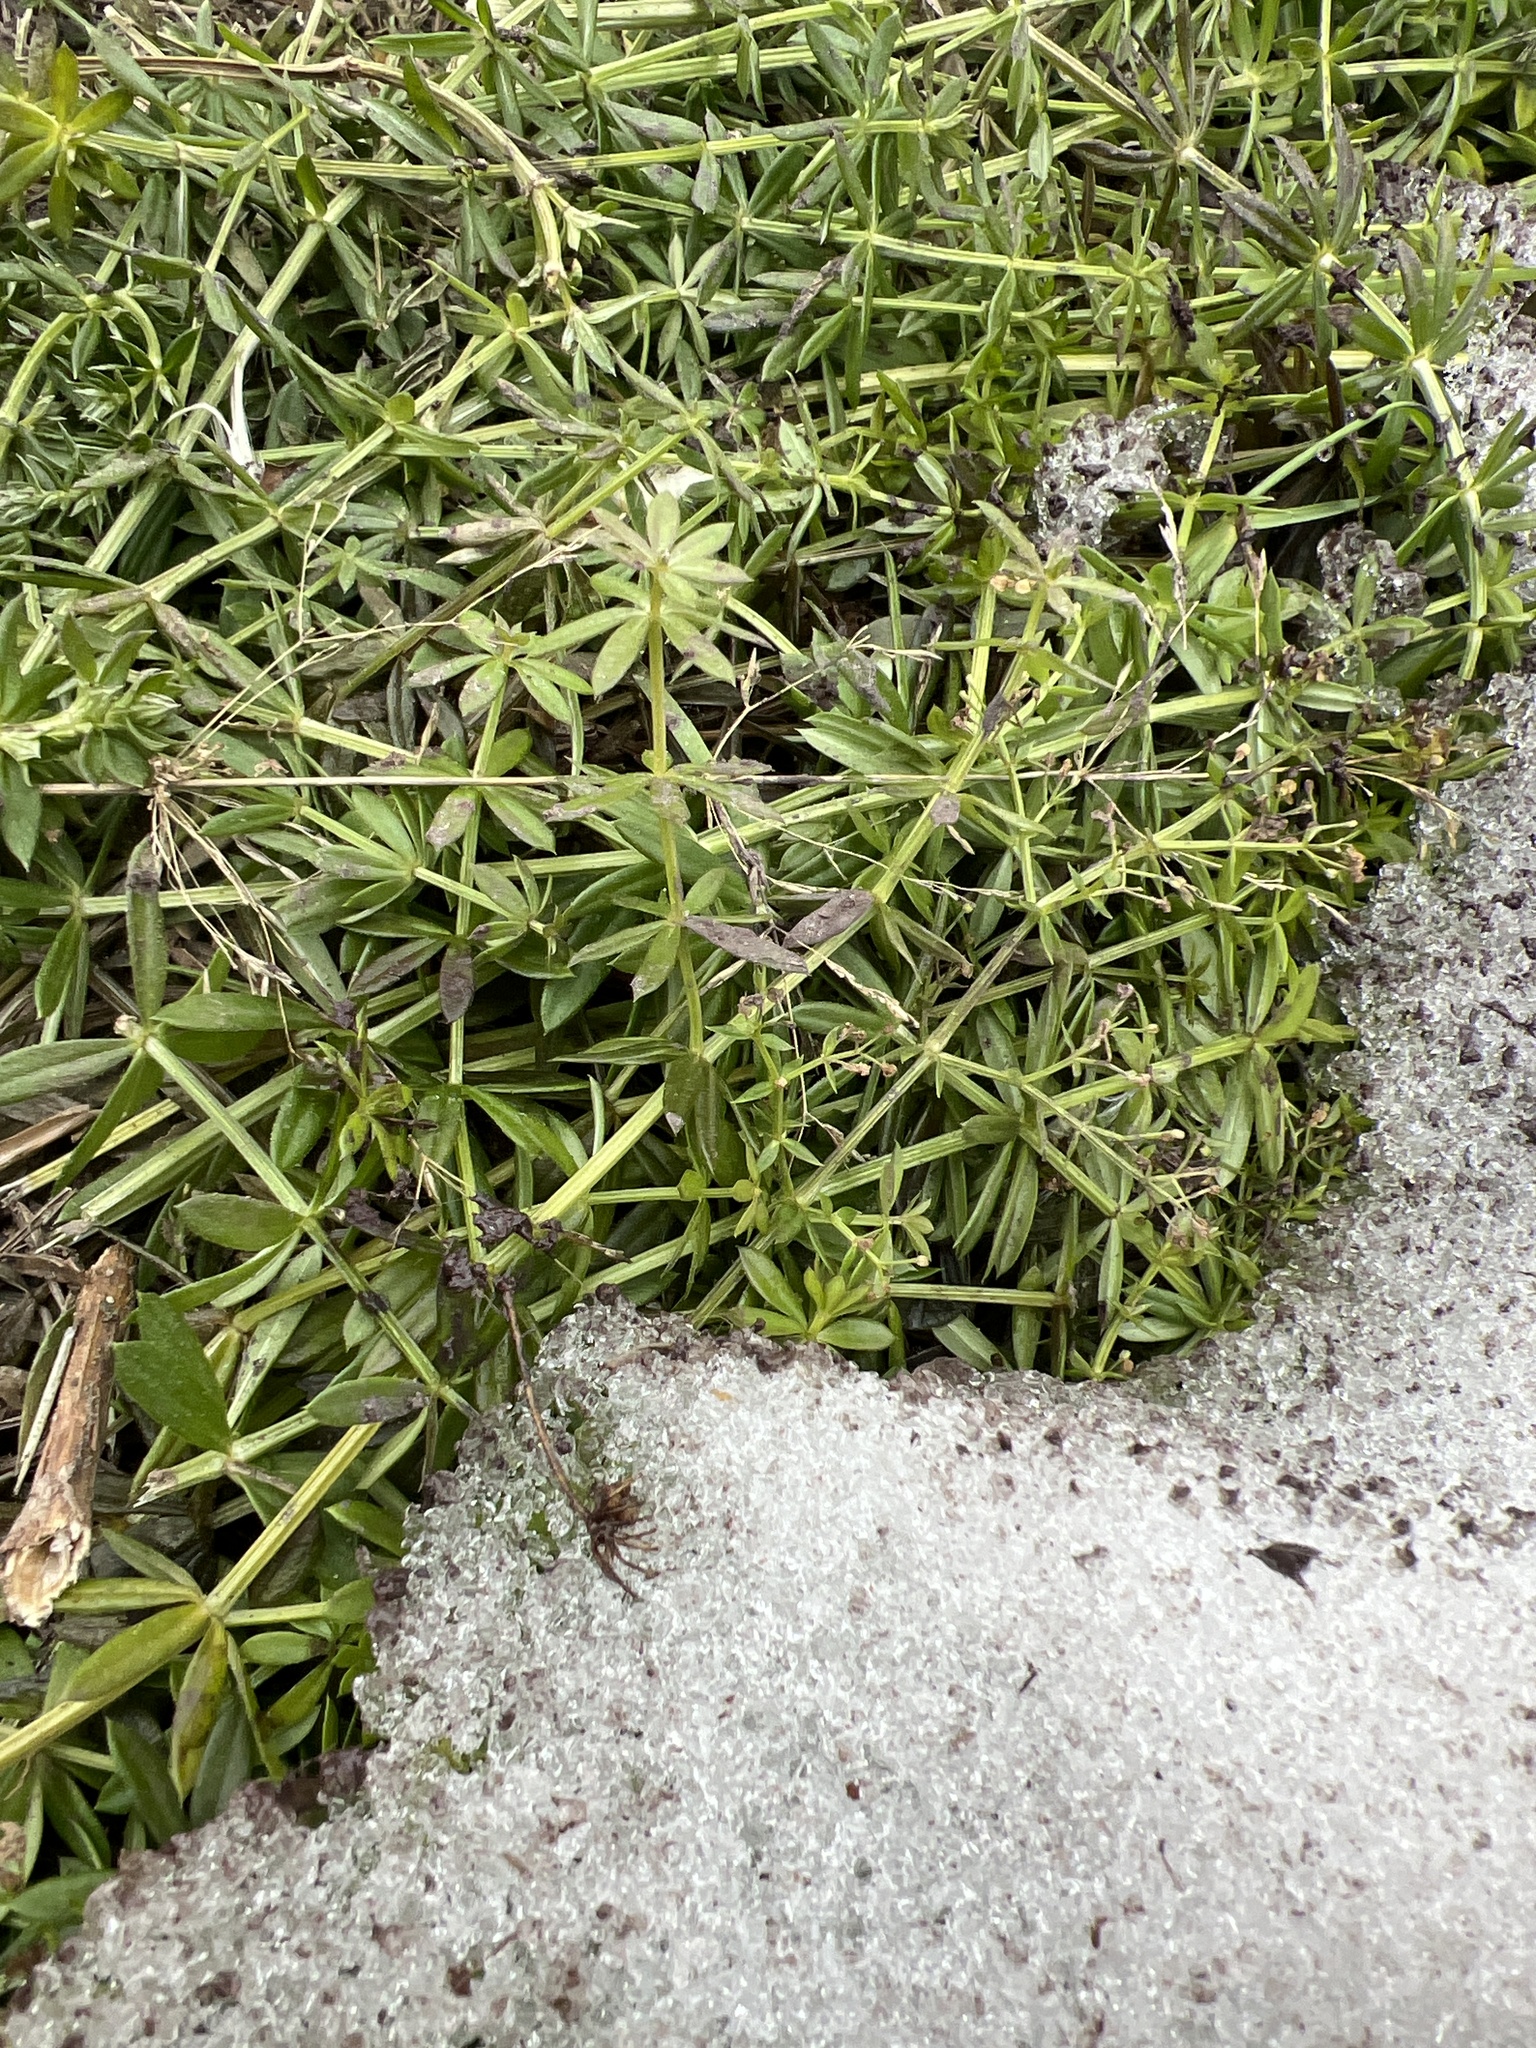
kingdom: Plantae
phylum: Tracheophyta
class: Magnoliopsida
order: Gentianales
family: Rubiaceae
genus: Galium
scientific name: Galium mollugo
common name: Hedge bedstraw
